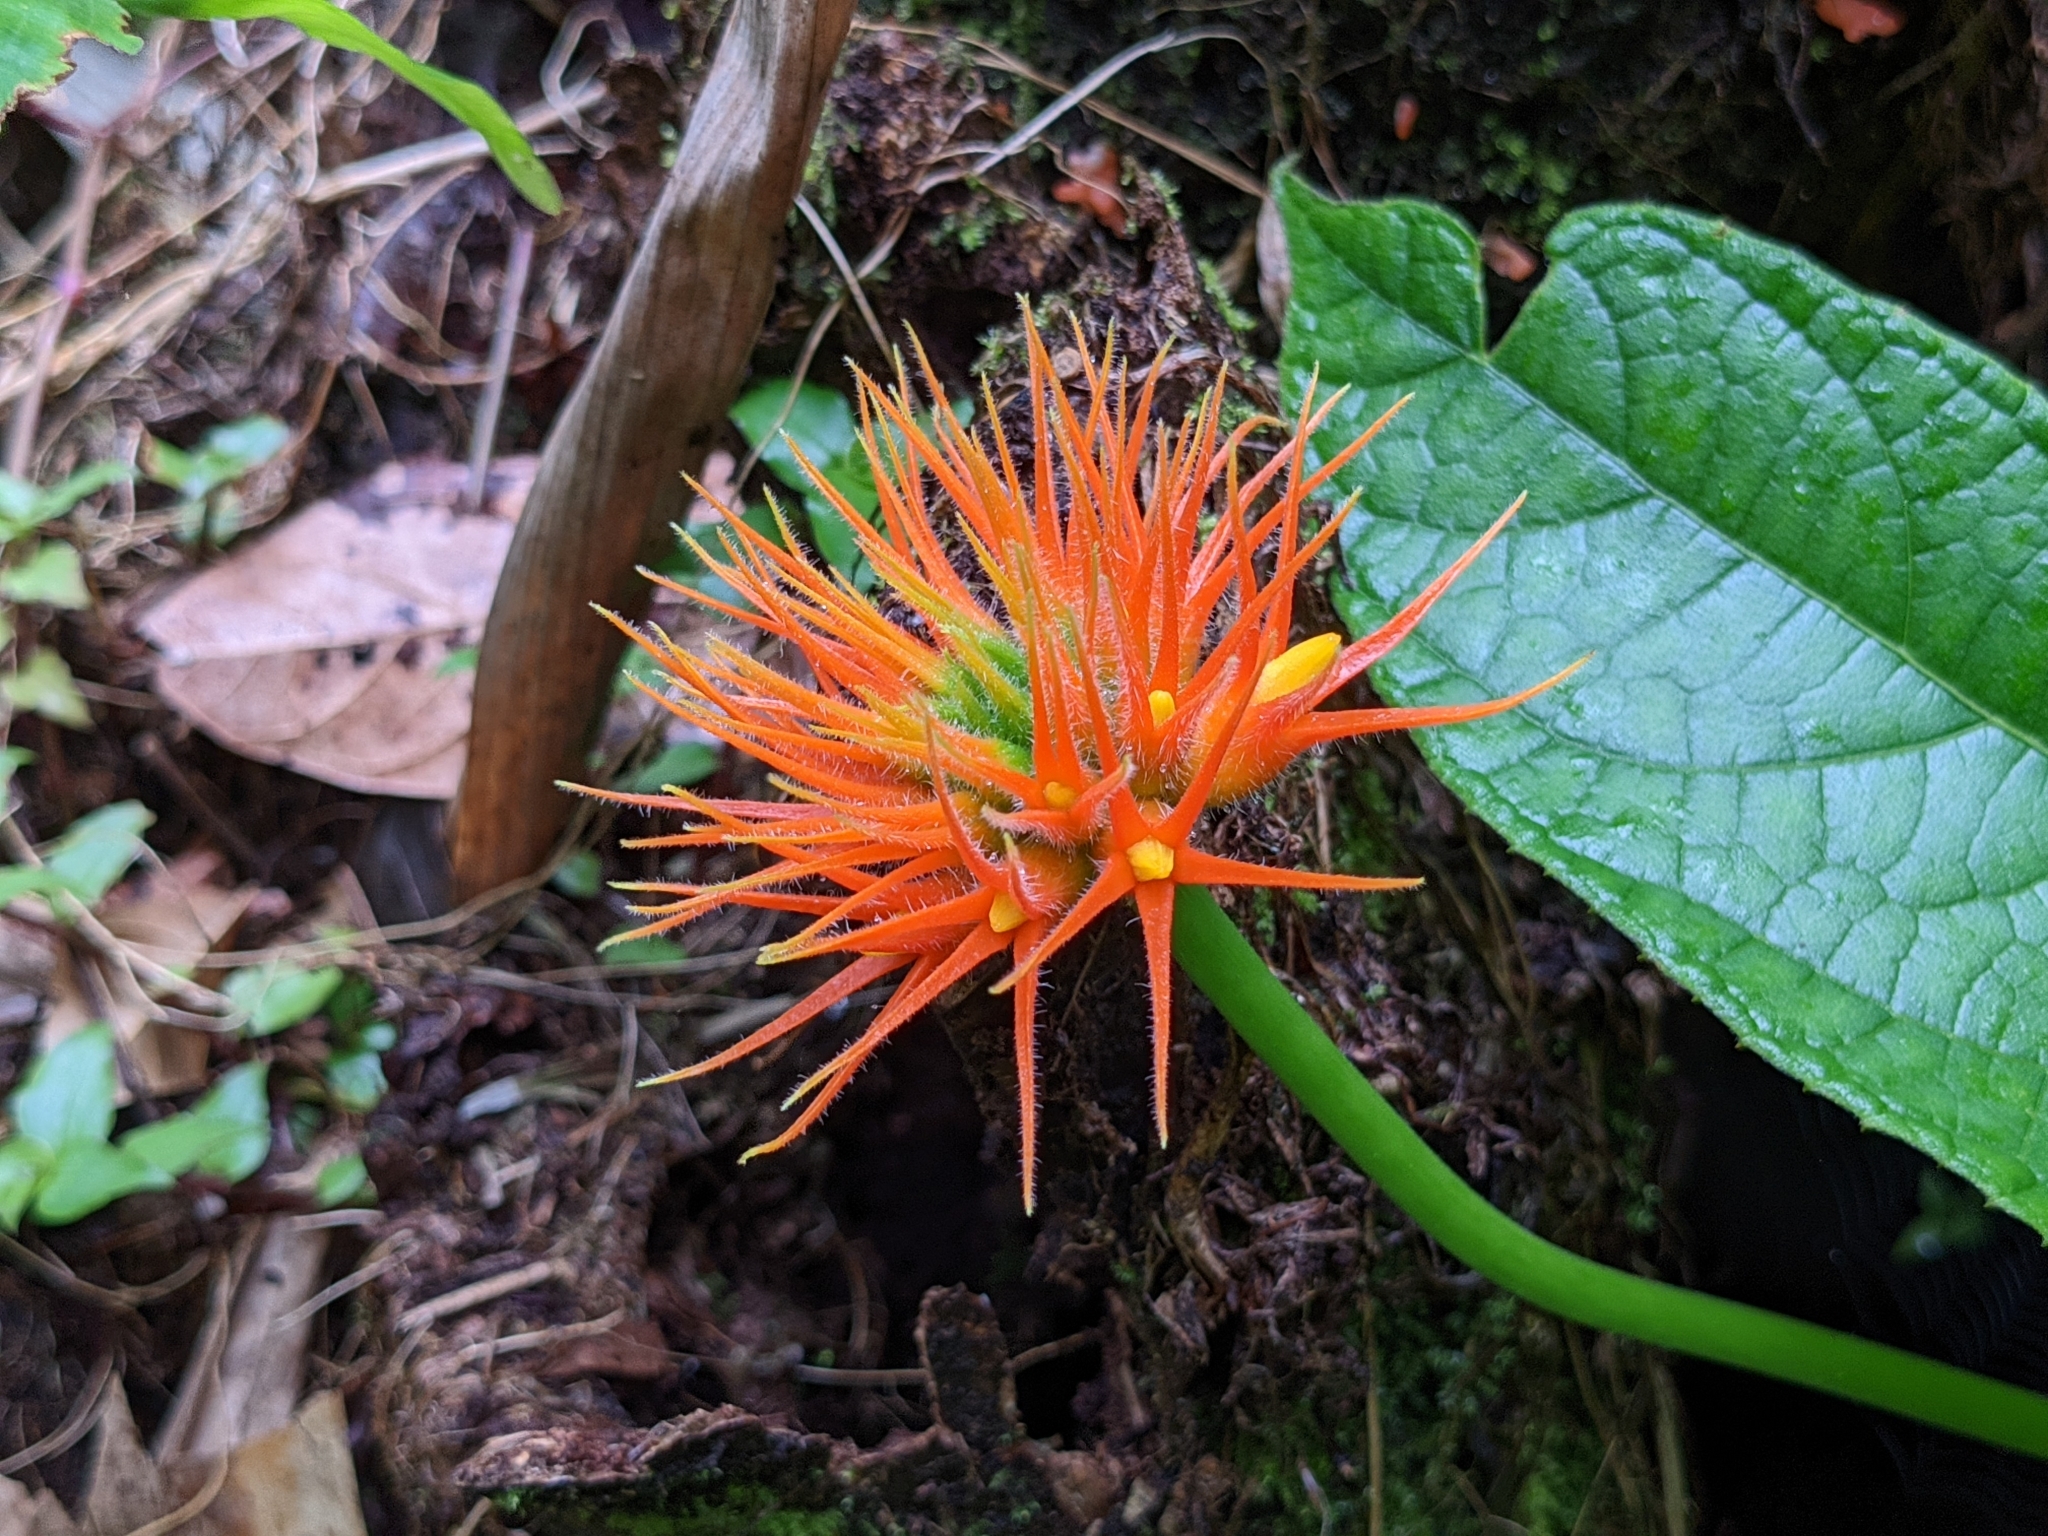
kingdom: Plantae
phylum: Tracheophyta
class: Magnoliopsida
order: Cucurbitales
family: Cucurbitaceae
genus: Gurania
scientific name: Gurania makoyana
